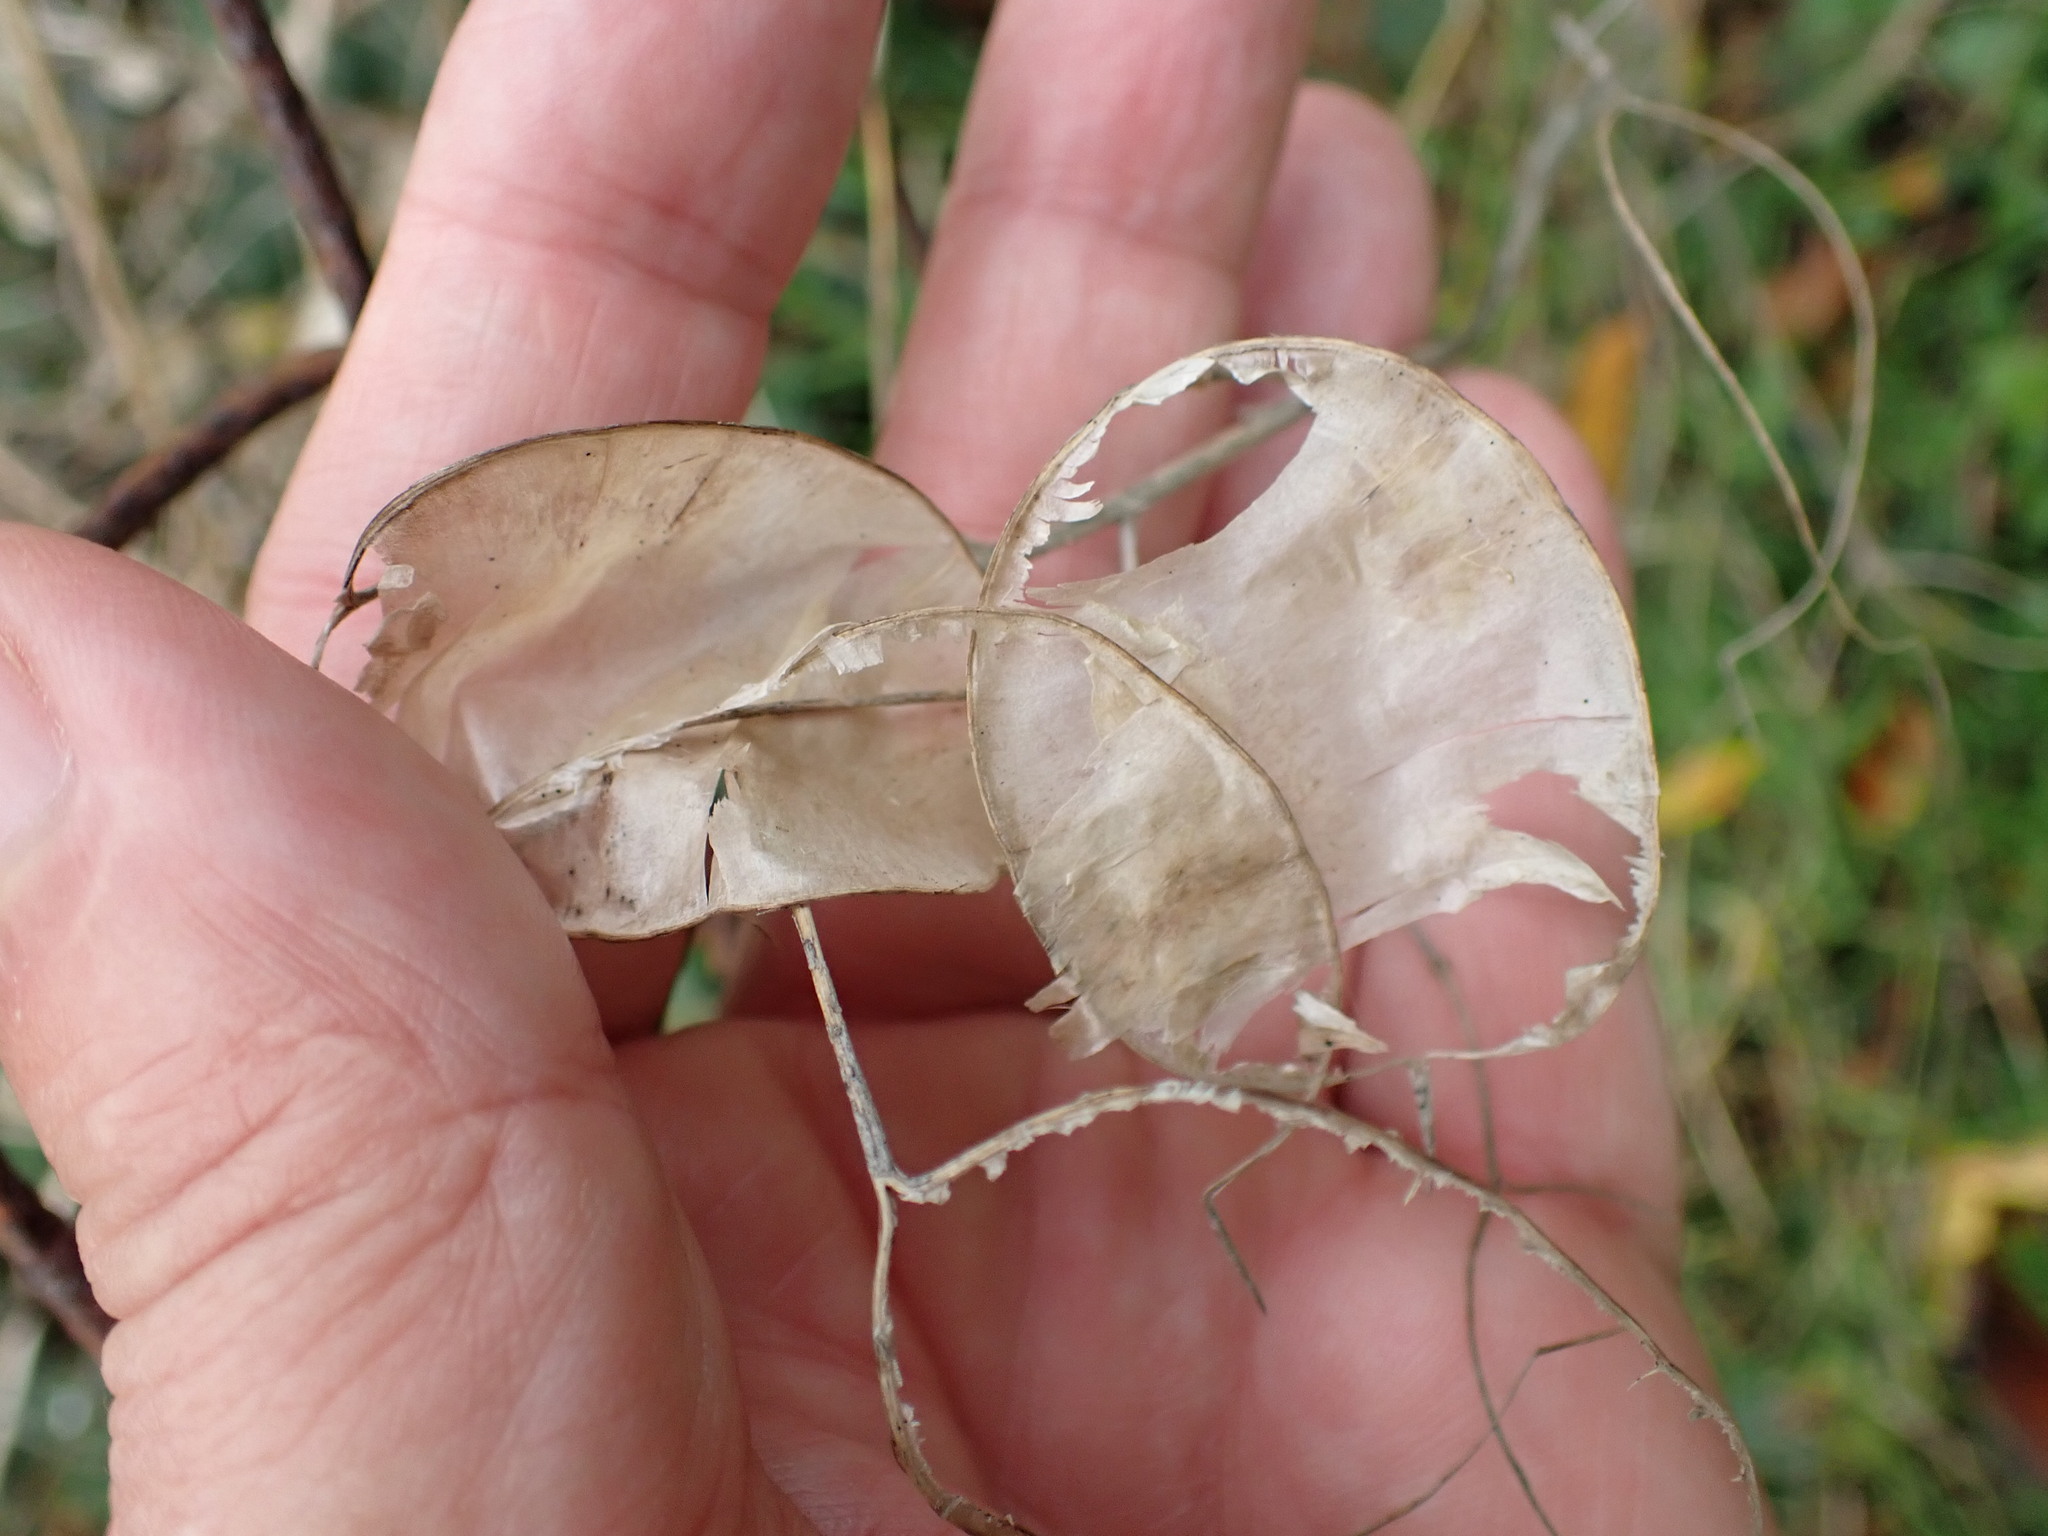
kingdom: Plantae
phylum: Tracheophyta
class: Magnoliopsida
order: Brassicales
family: Brassicaceae
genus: Lunaria
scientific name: Lunaria annua
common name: Honesty
